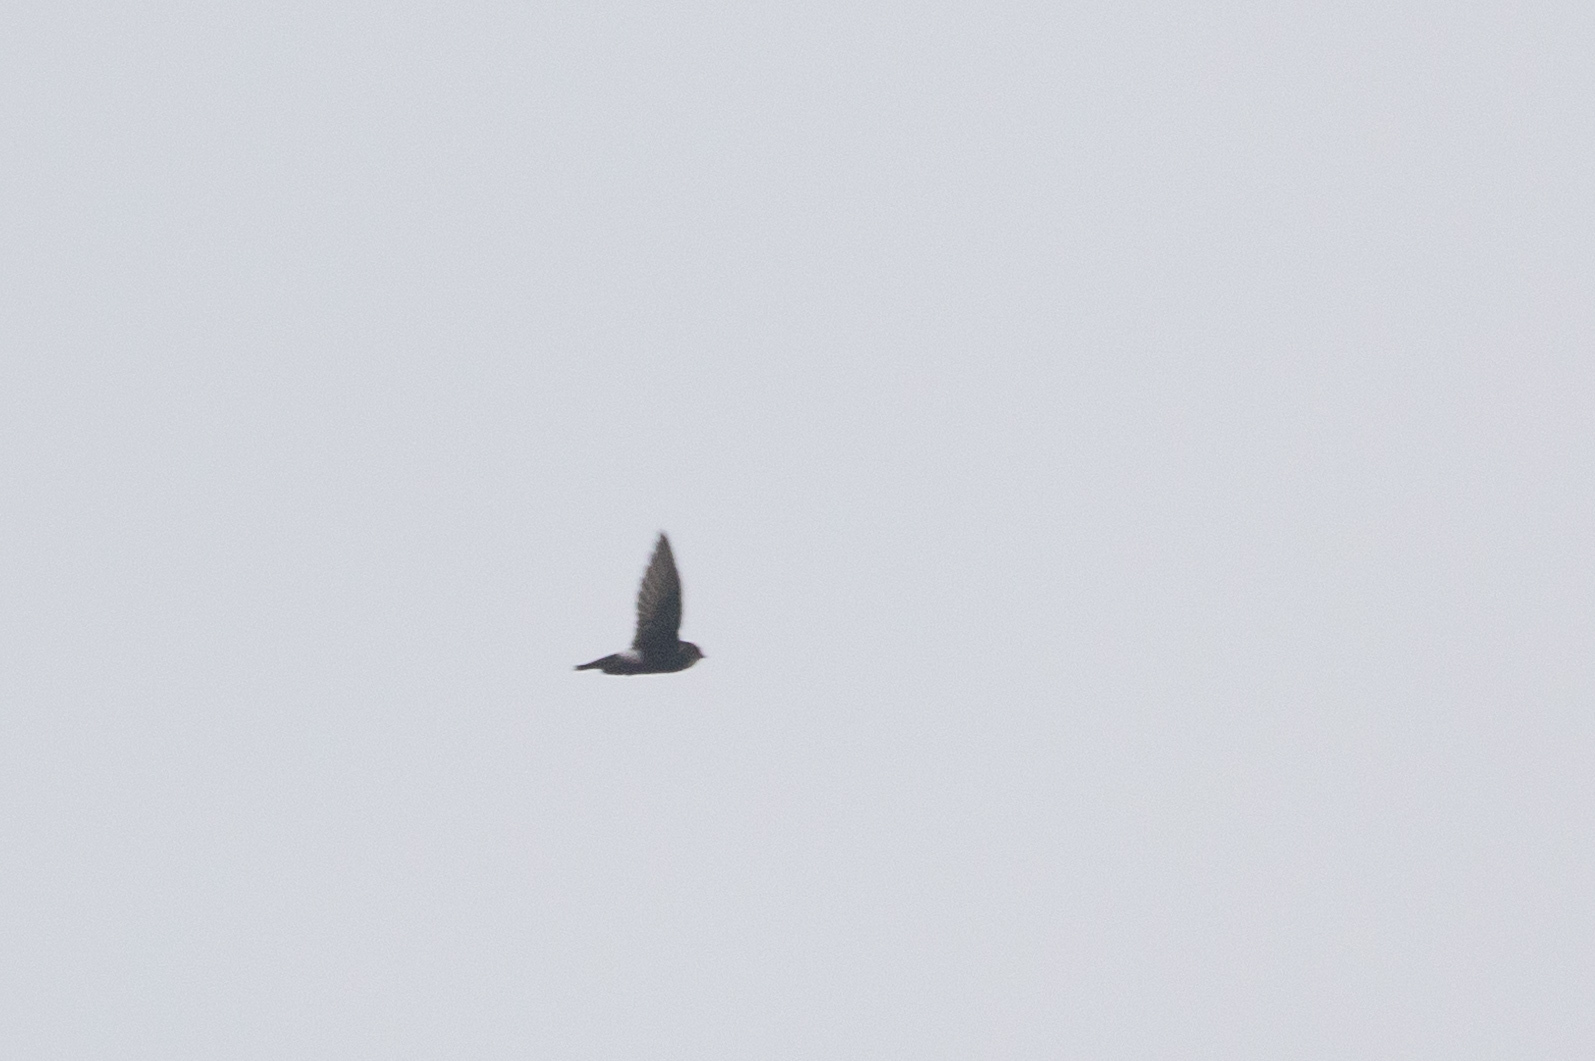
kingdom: Animalia
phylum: Chordata
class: Aves
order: Apodiformes
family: Apodidae
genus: Apus
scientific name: Apus nipalensis
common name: House swift
